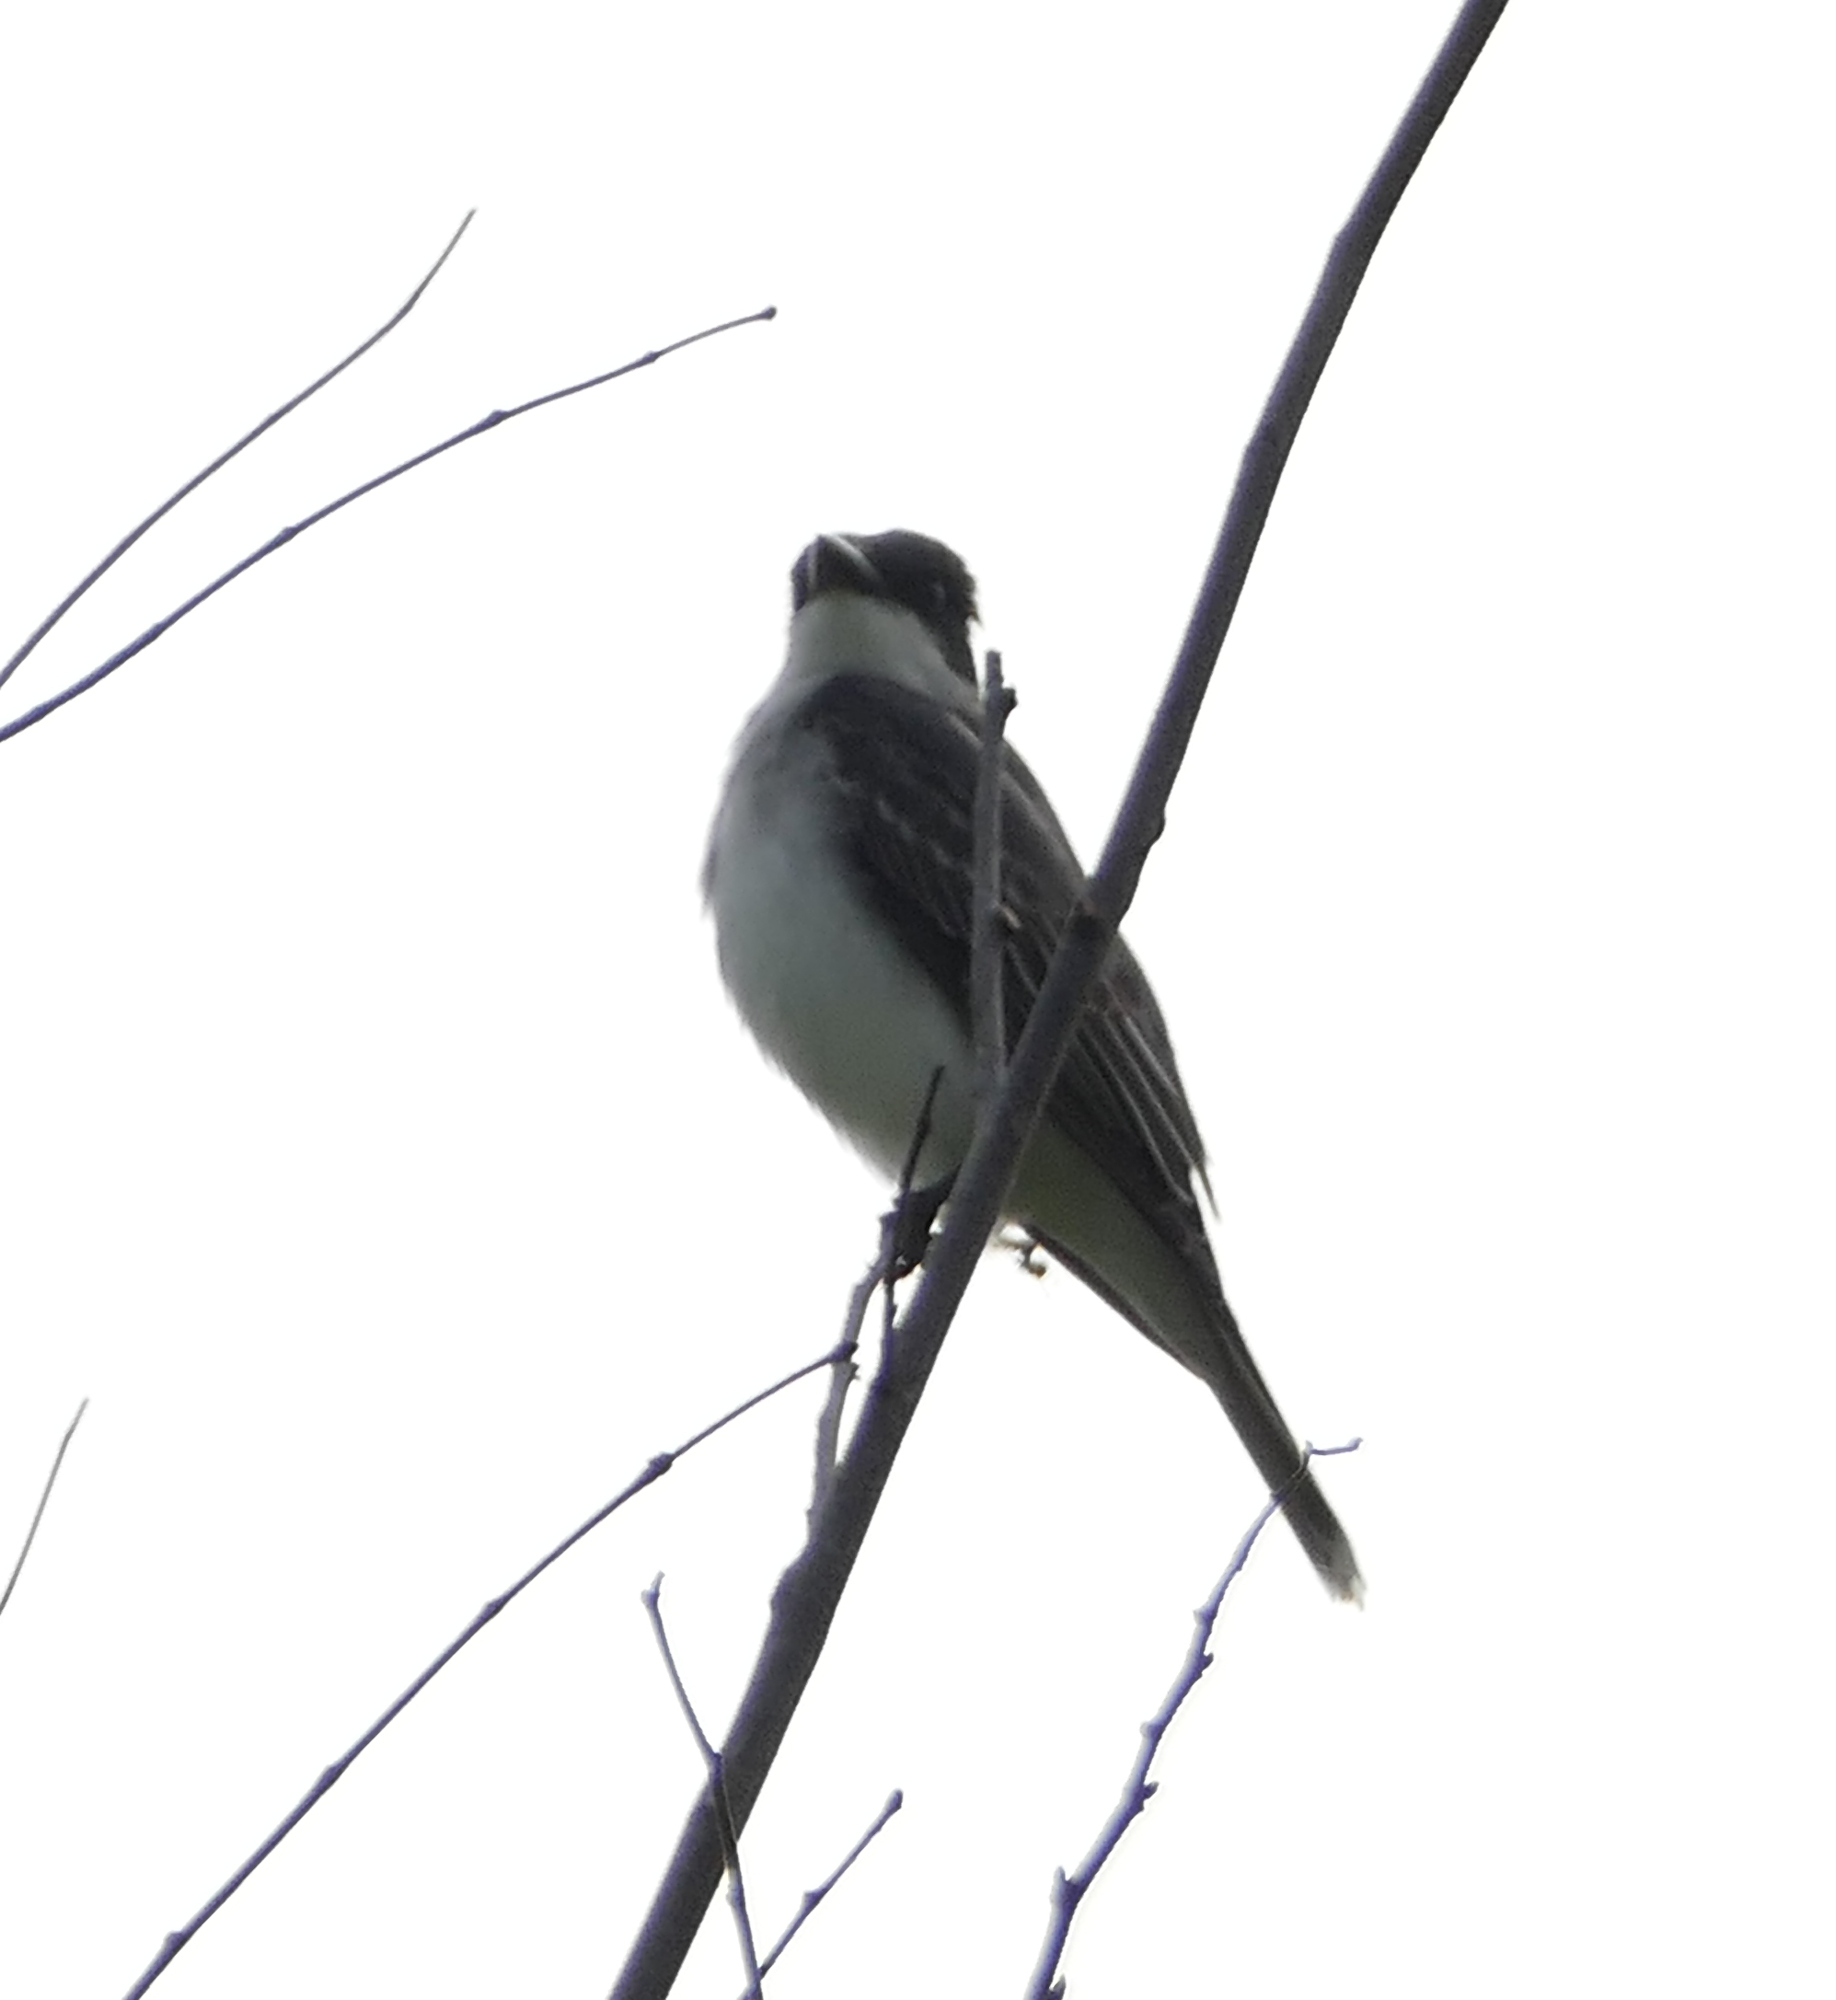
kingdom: Animalia
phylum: Chordata
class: Aves
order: Passeriformes
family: Tyrannidae
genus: Tyrannus
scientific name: Tyrannus tyrannus
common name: Eastern kingbird
